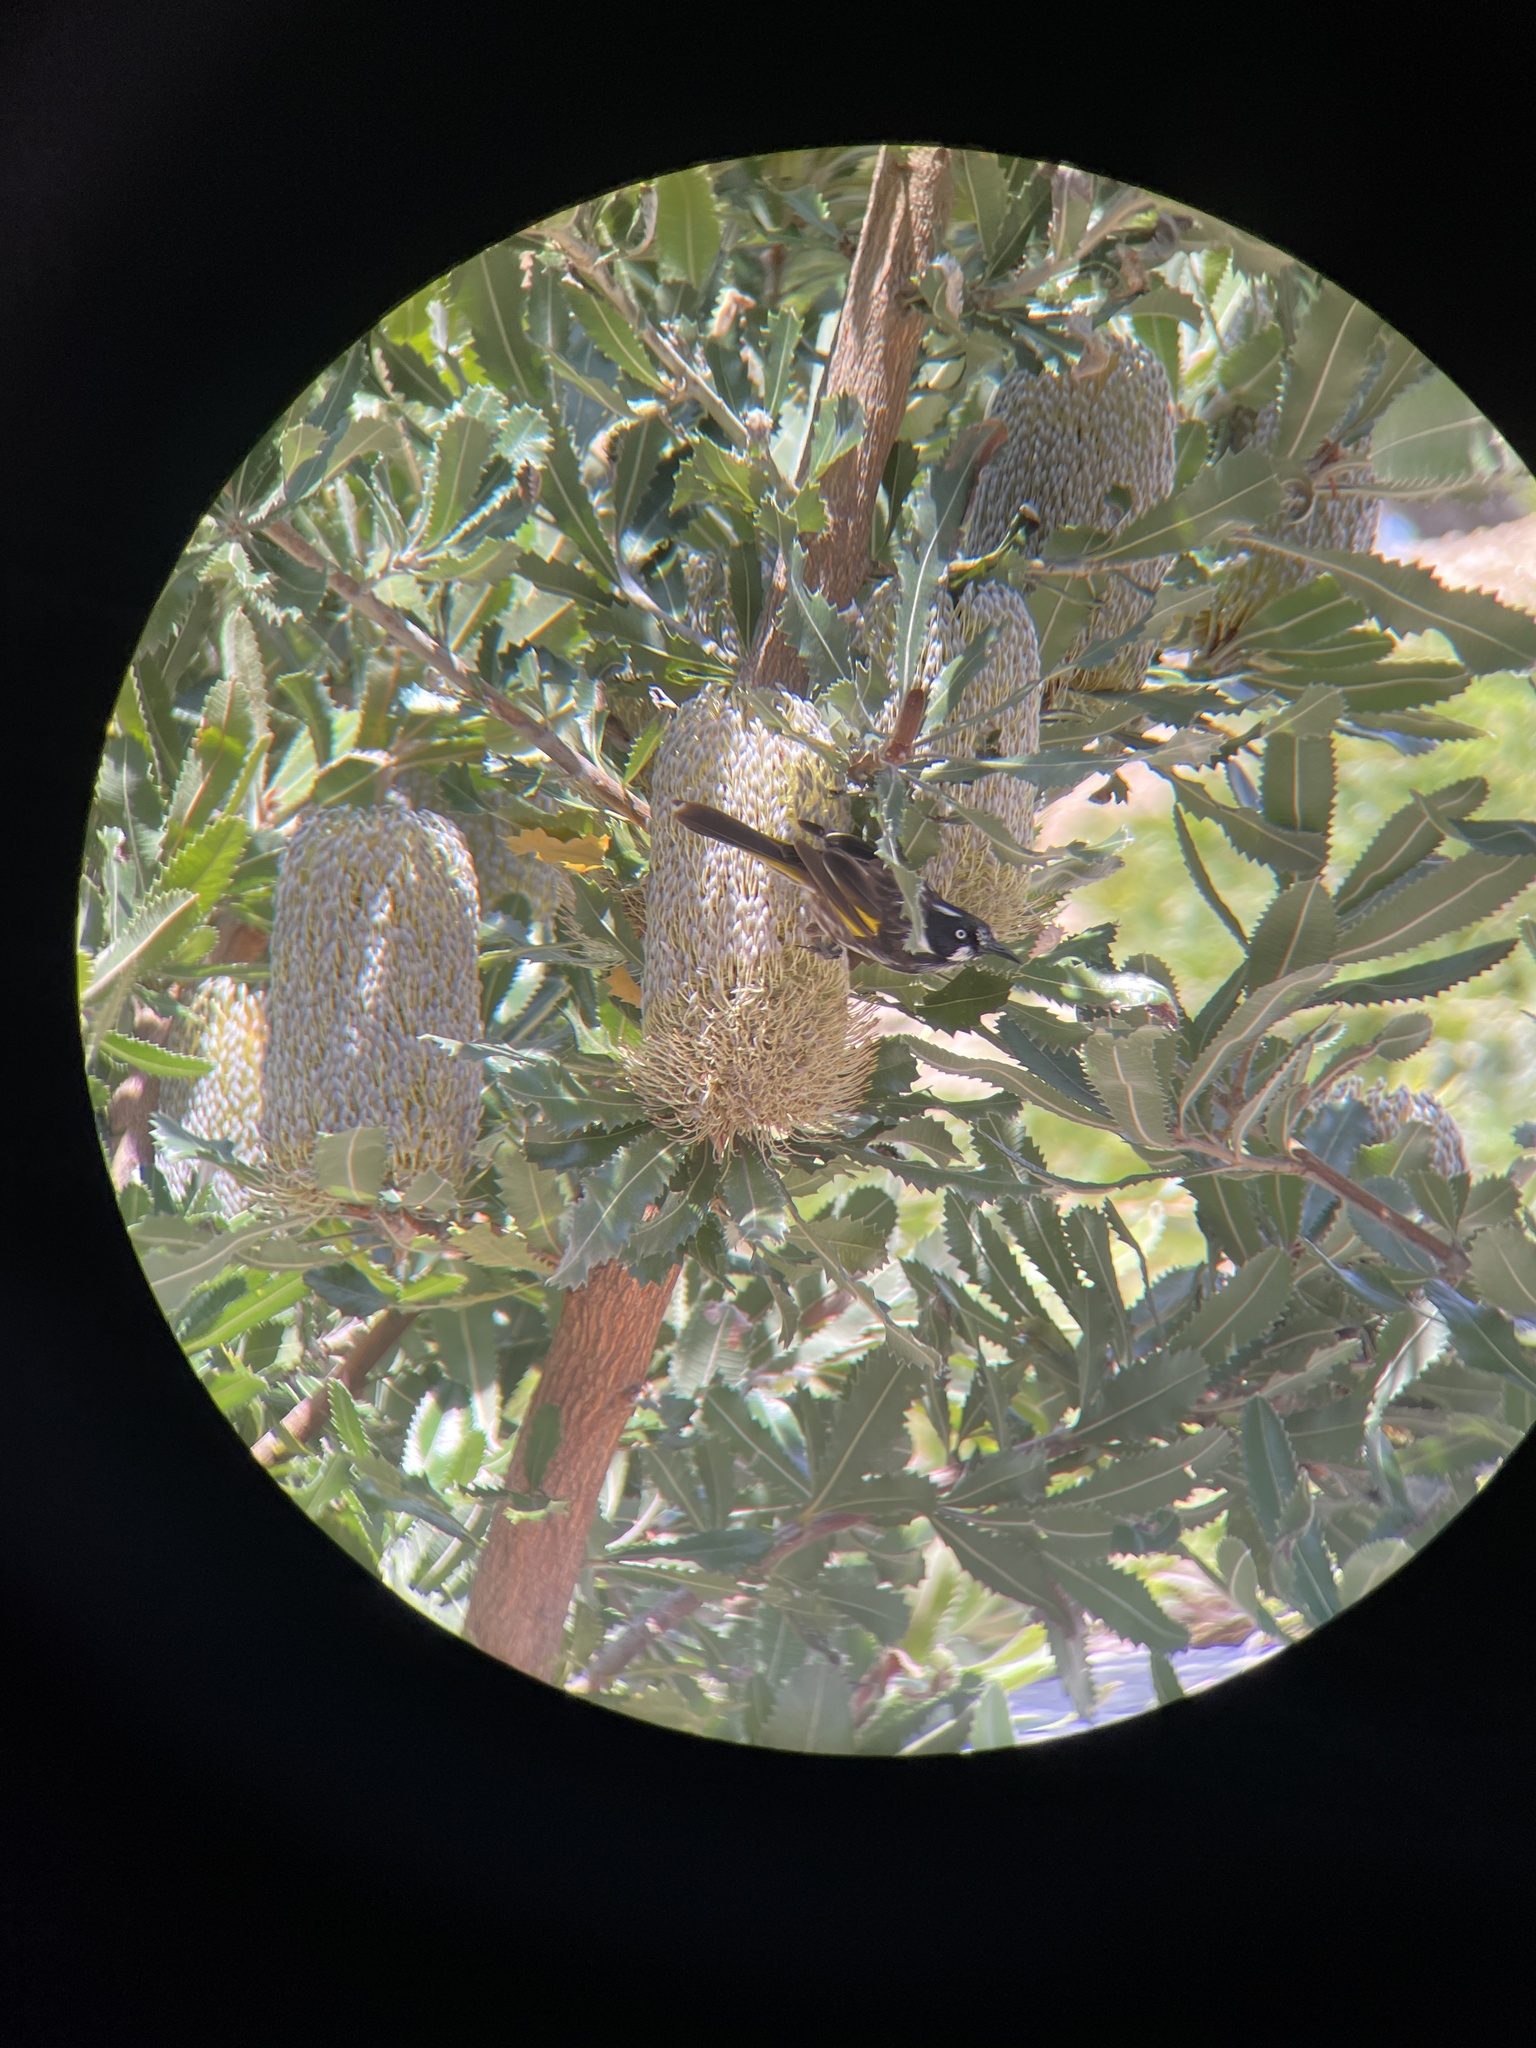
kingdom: Animalia
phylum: Chordata
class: Aves
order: Passeriformes
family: Meliphagidae
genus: Phylidonyris
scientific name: Phylidonyris novaehollandiae
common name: New holland honeyeater
